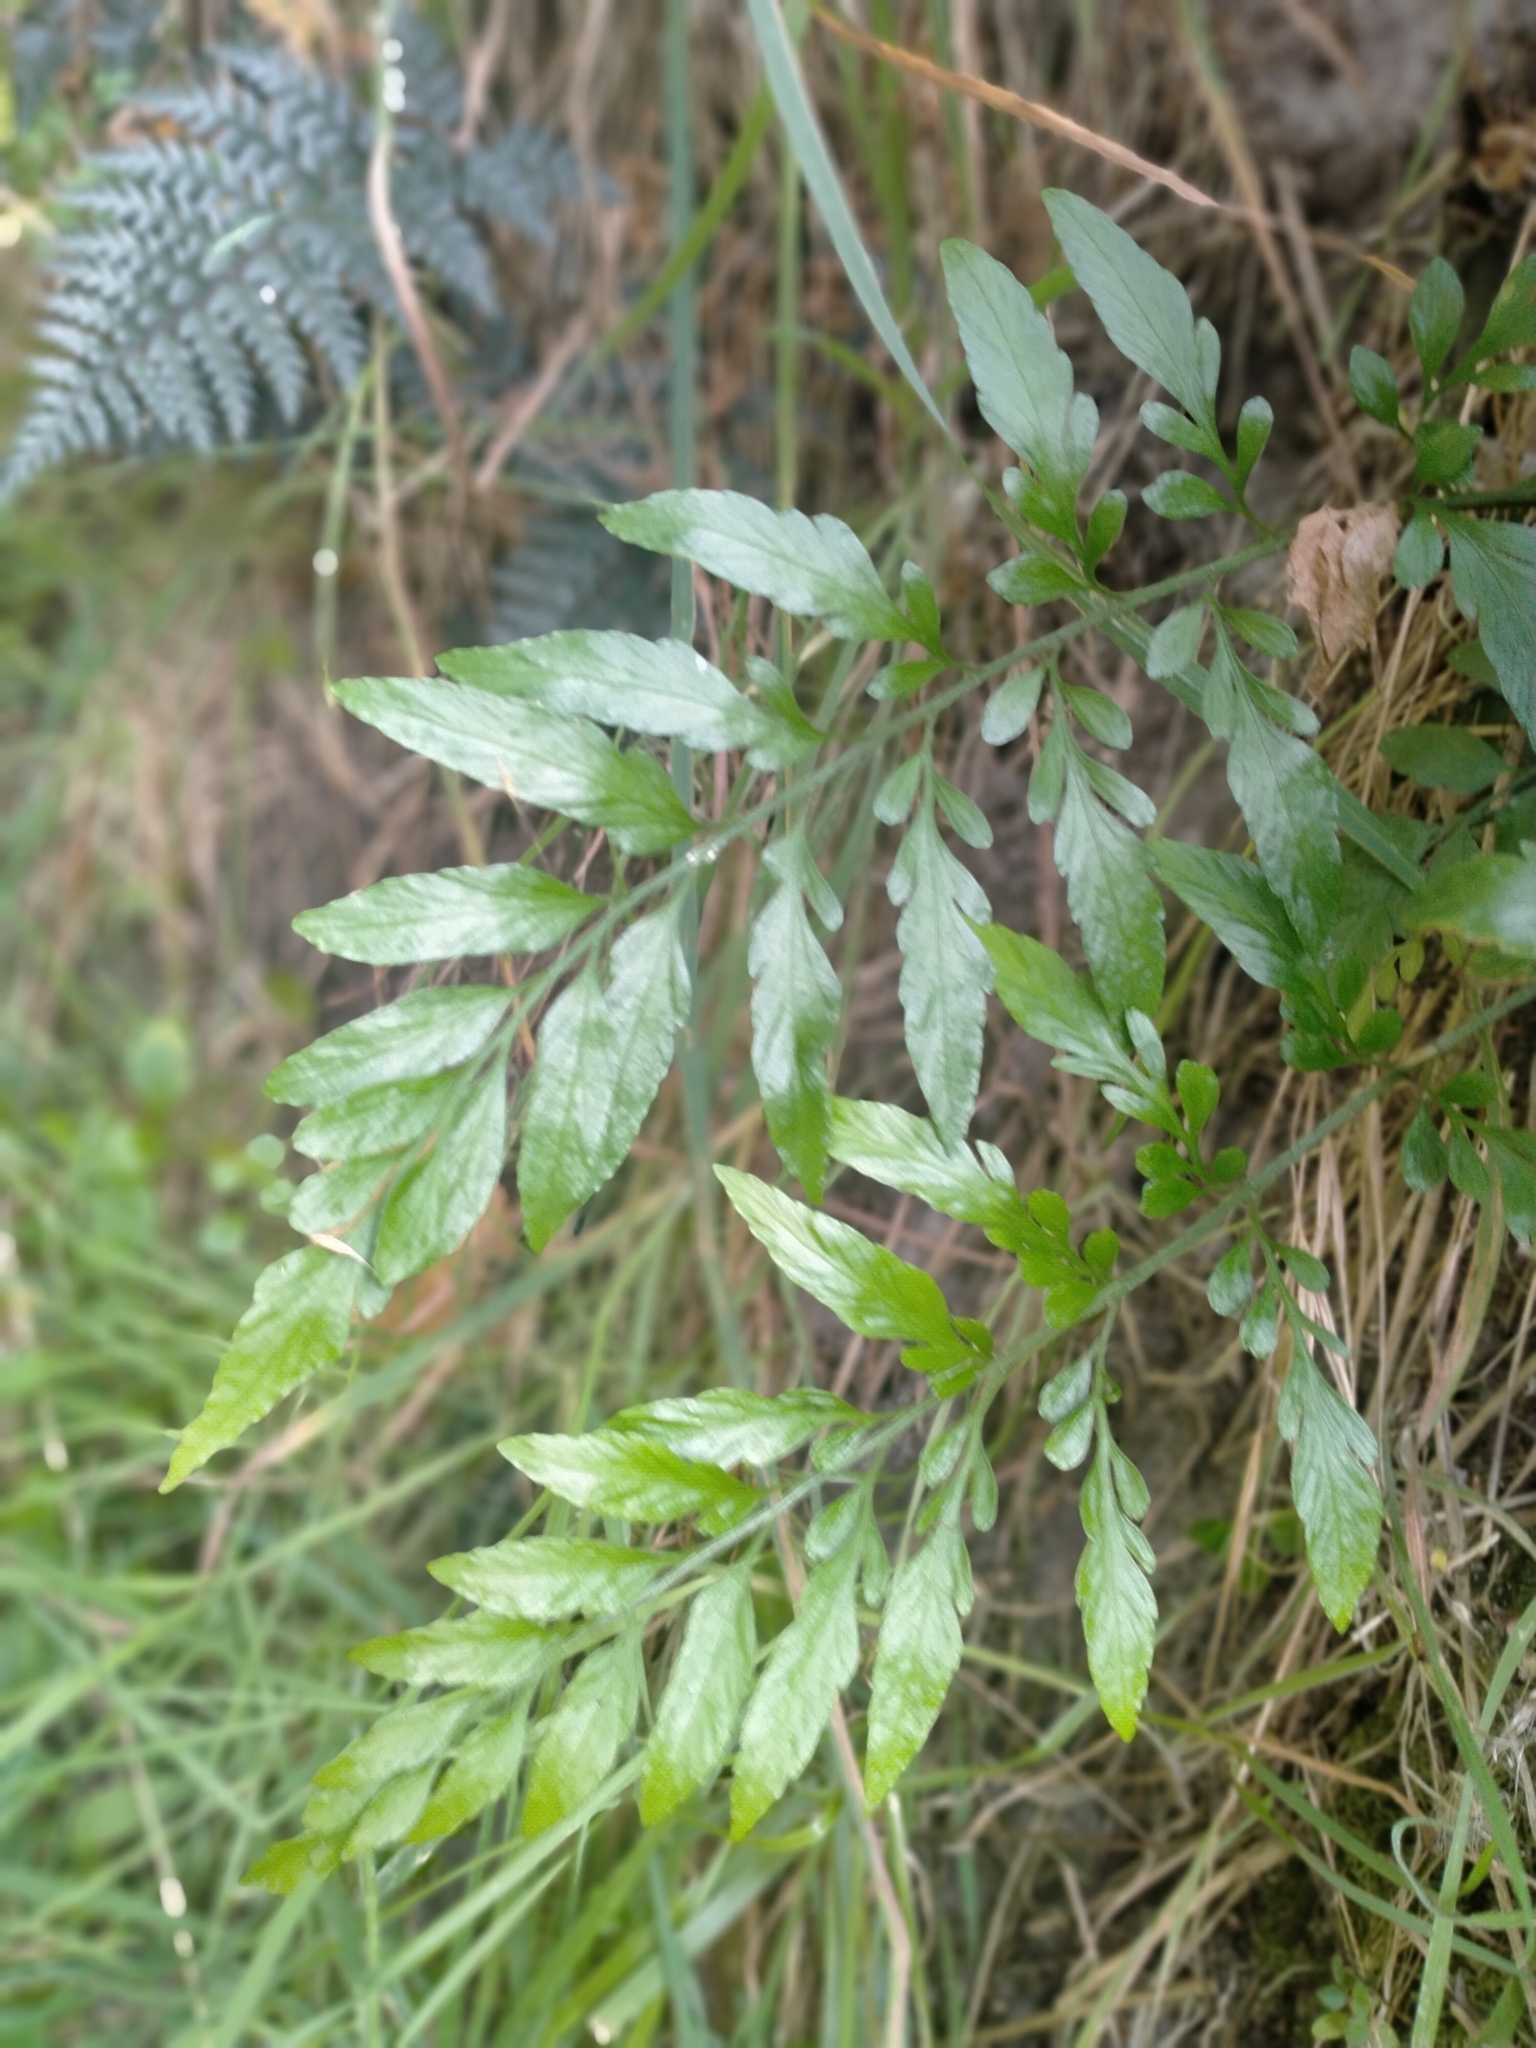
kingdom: Plantae
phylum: Tracheophyta
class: Polypodiopsida
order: Polypodiales
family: Aspleniaceae
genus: Asplenium
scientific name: Asplenium lyallii
